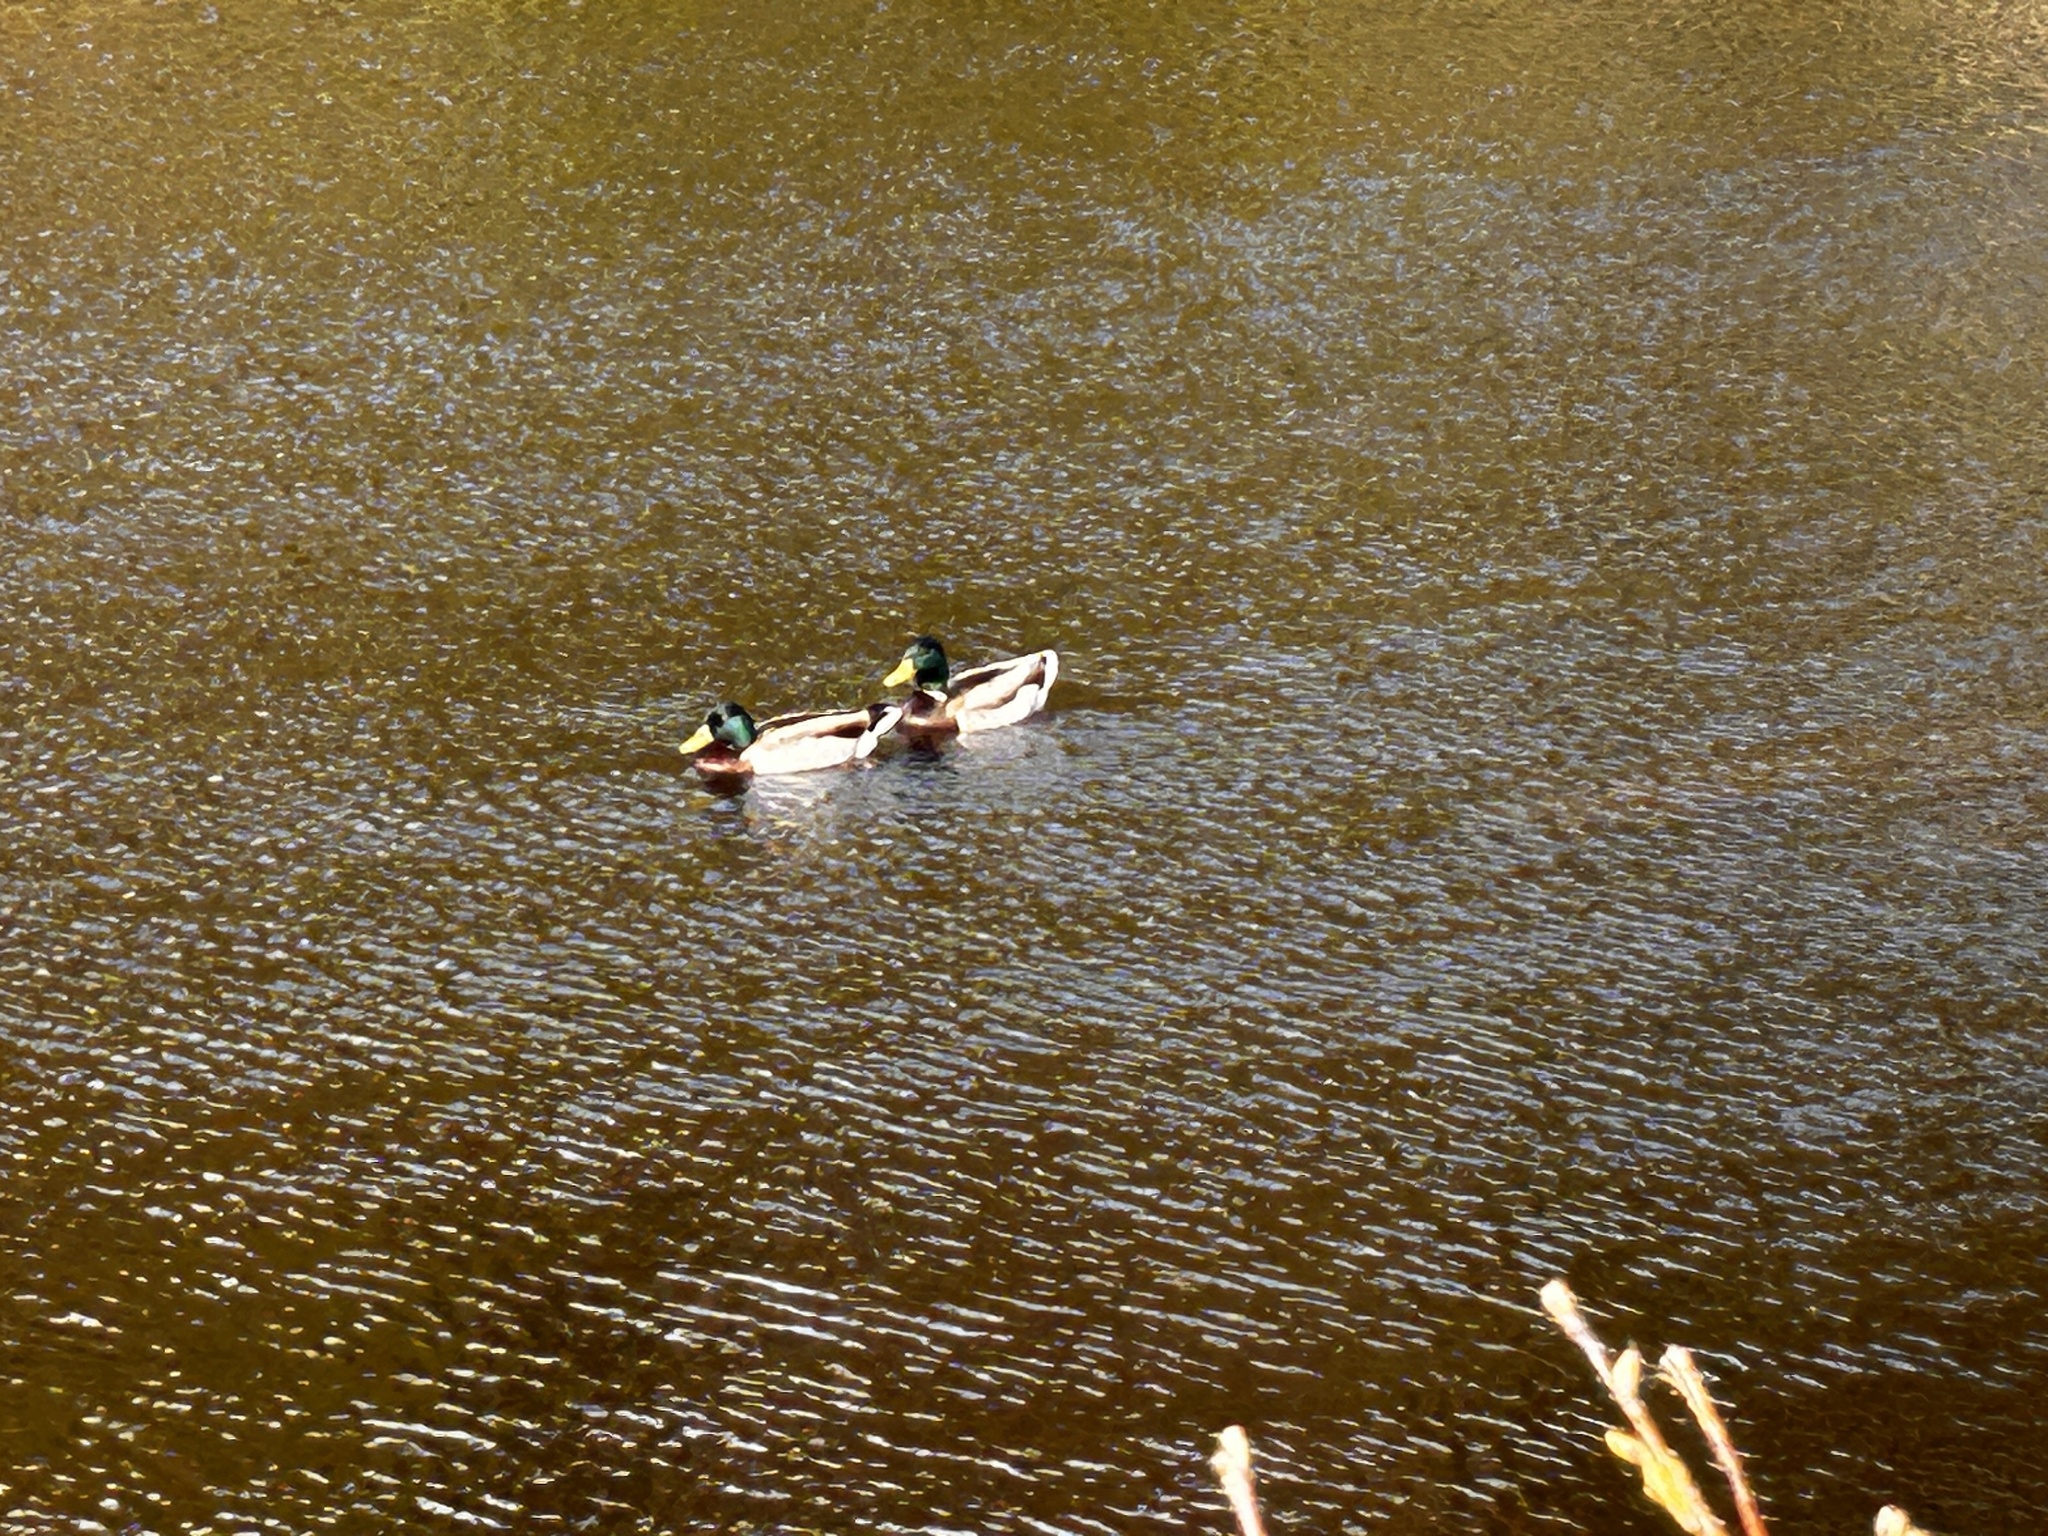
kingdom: Animalia
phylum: Chordata
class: Aves
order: Anseriformes
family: Anatidae
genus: Anas
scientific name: Anas platyrhynchos
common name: Mallard
